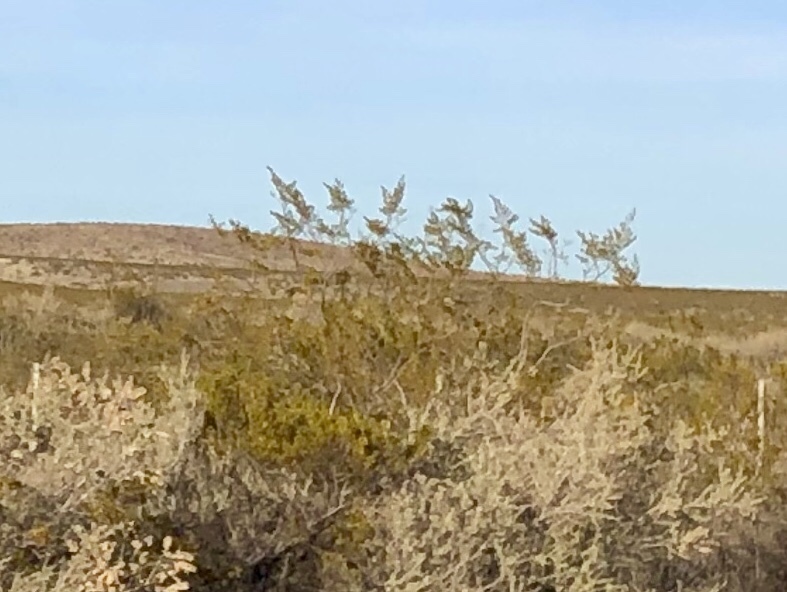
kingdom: Plantae
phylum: Tracheophyta
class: Magnoliopsida
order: Zygophyllales
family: Zygophyllaceae
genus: Larrea
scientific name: Larrea tridentata
